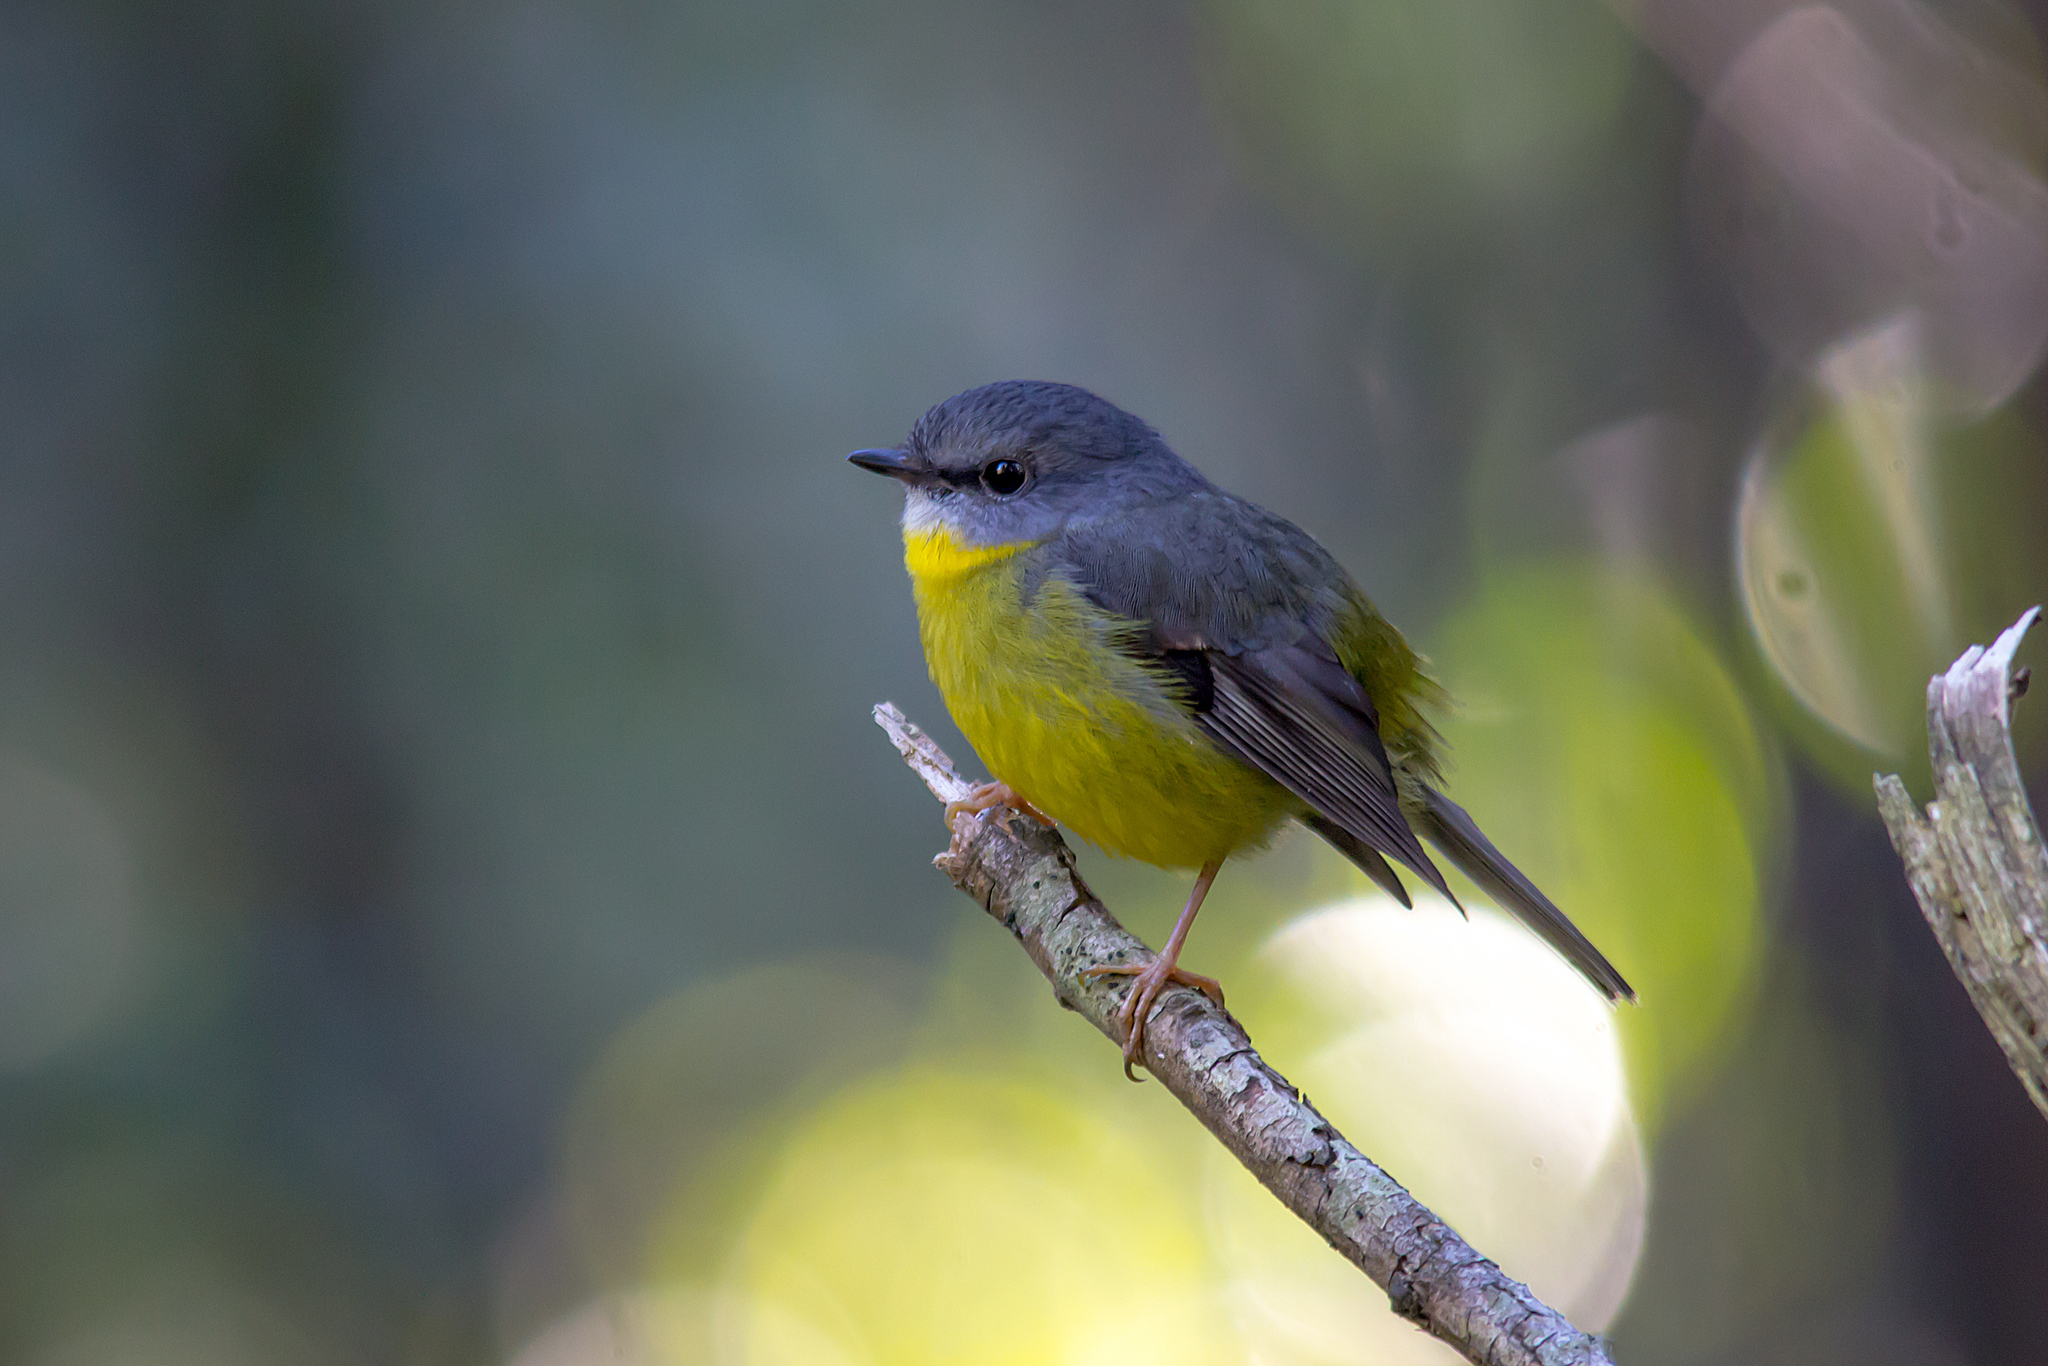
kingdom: Animalia
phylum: Chordata
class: Aves
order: Passeriformes
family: Petroicidae
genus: Eopsaltria
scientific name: Eopsaltria australis
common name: Eastern yellow robin
